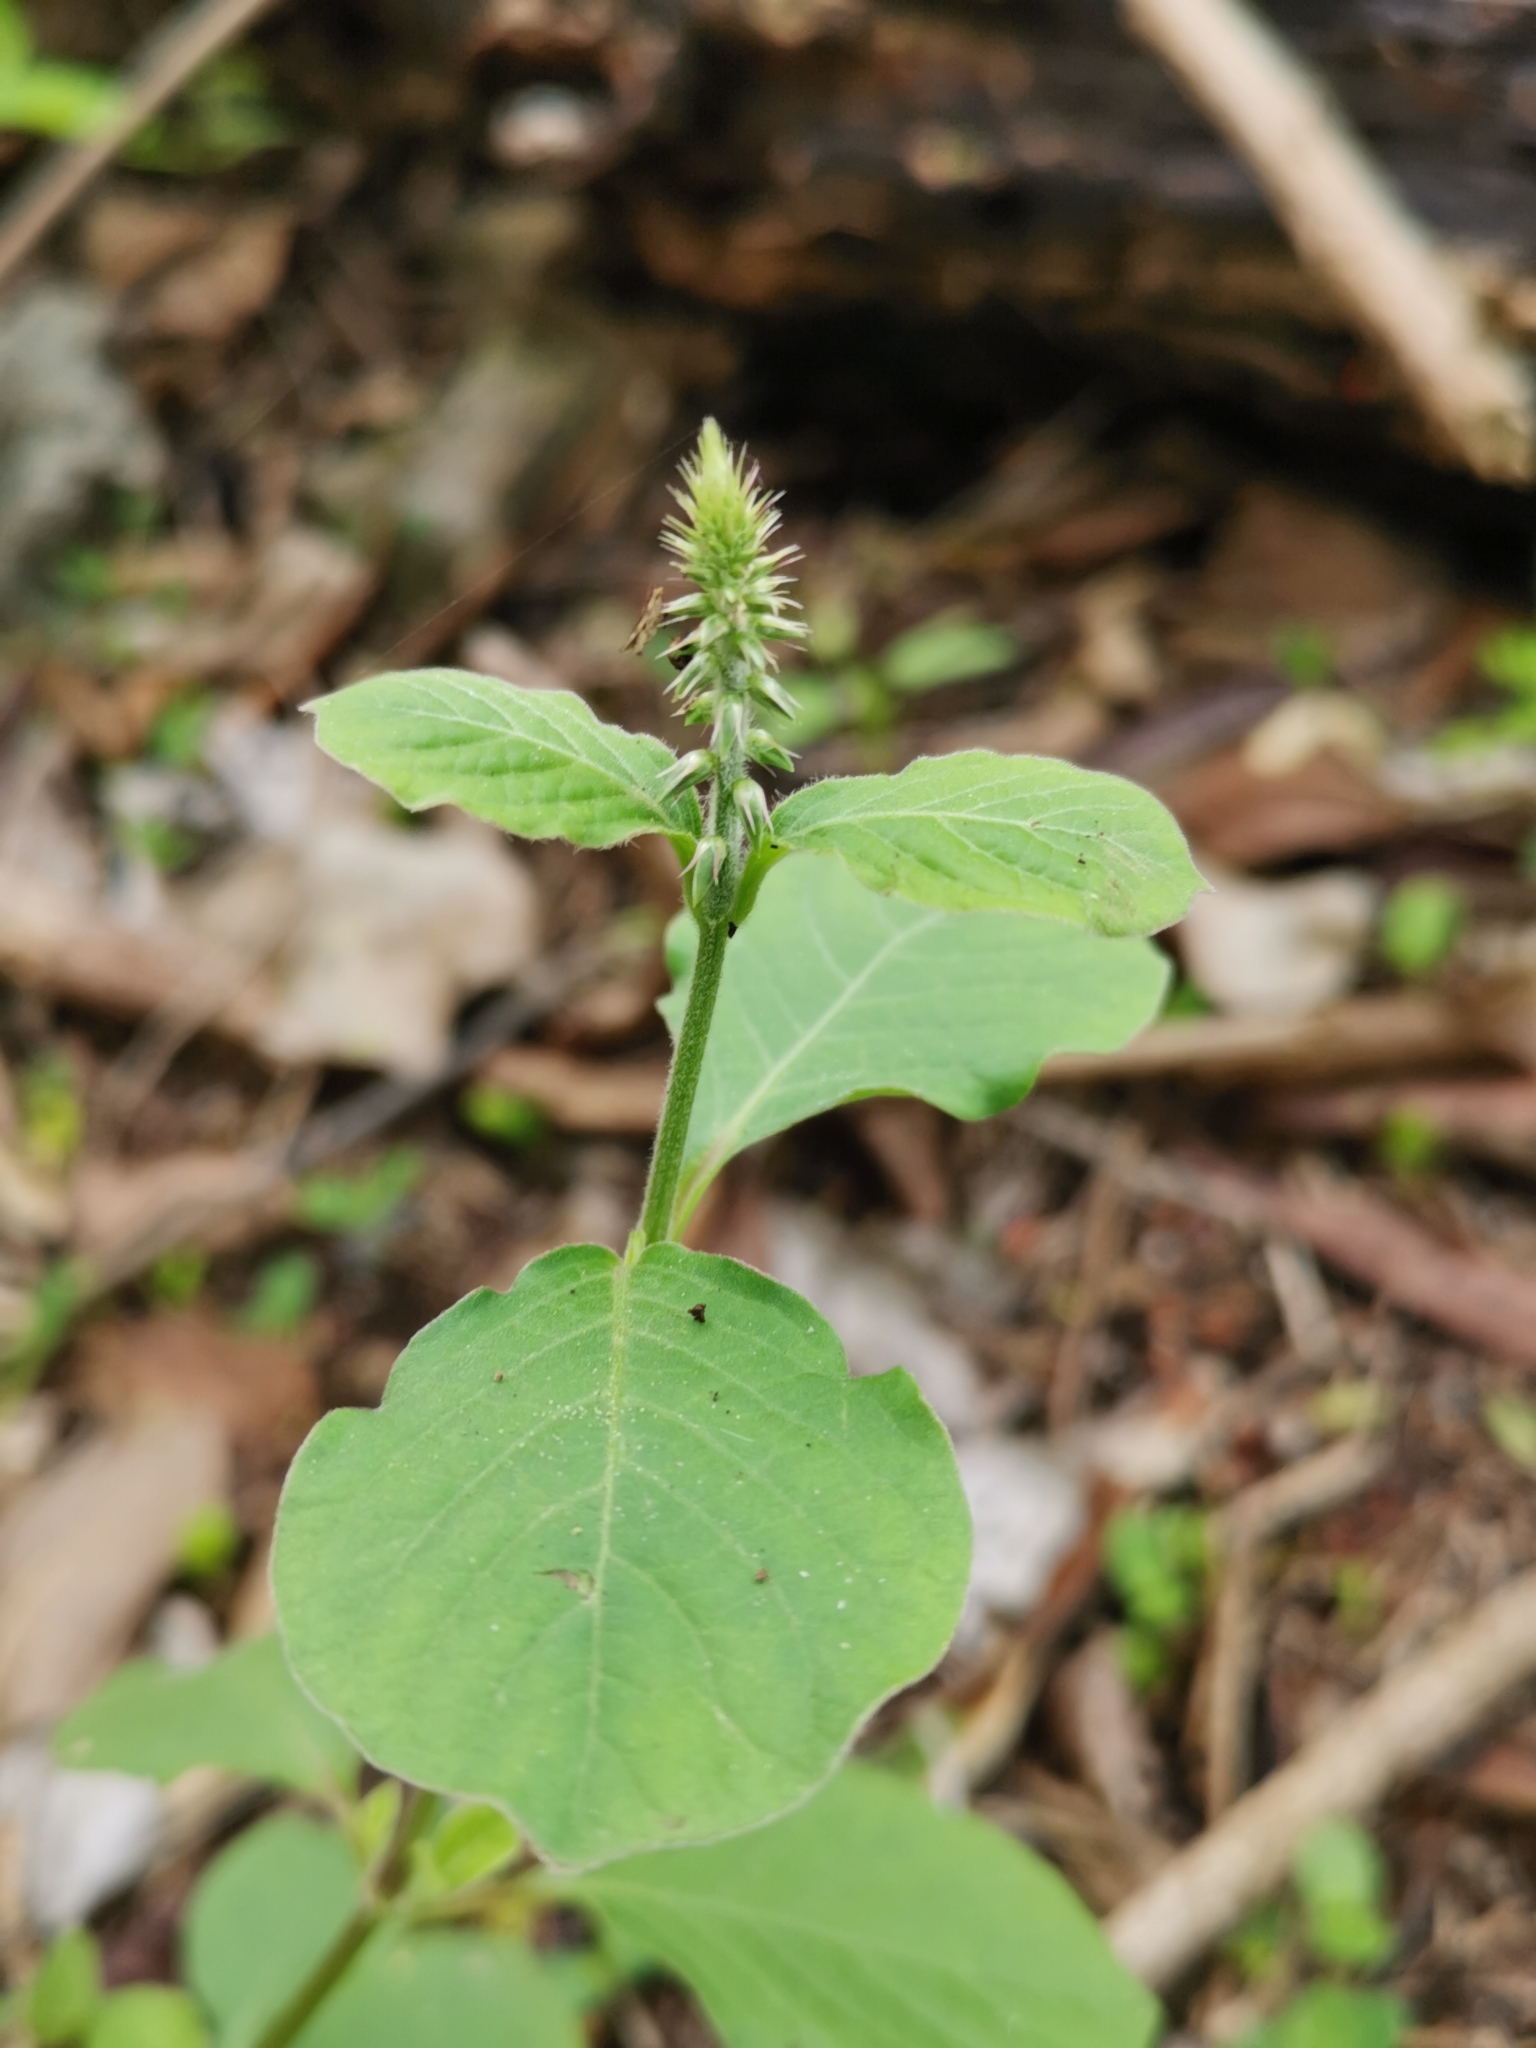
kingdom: Plantae
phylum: Tracheophyta
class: Magnoliopsida
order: Caryophyllales
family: Amaranthaceae
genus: Achyranthes
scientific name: Achyranthes aspera
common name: Devil's horsewhip
